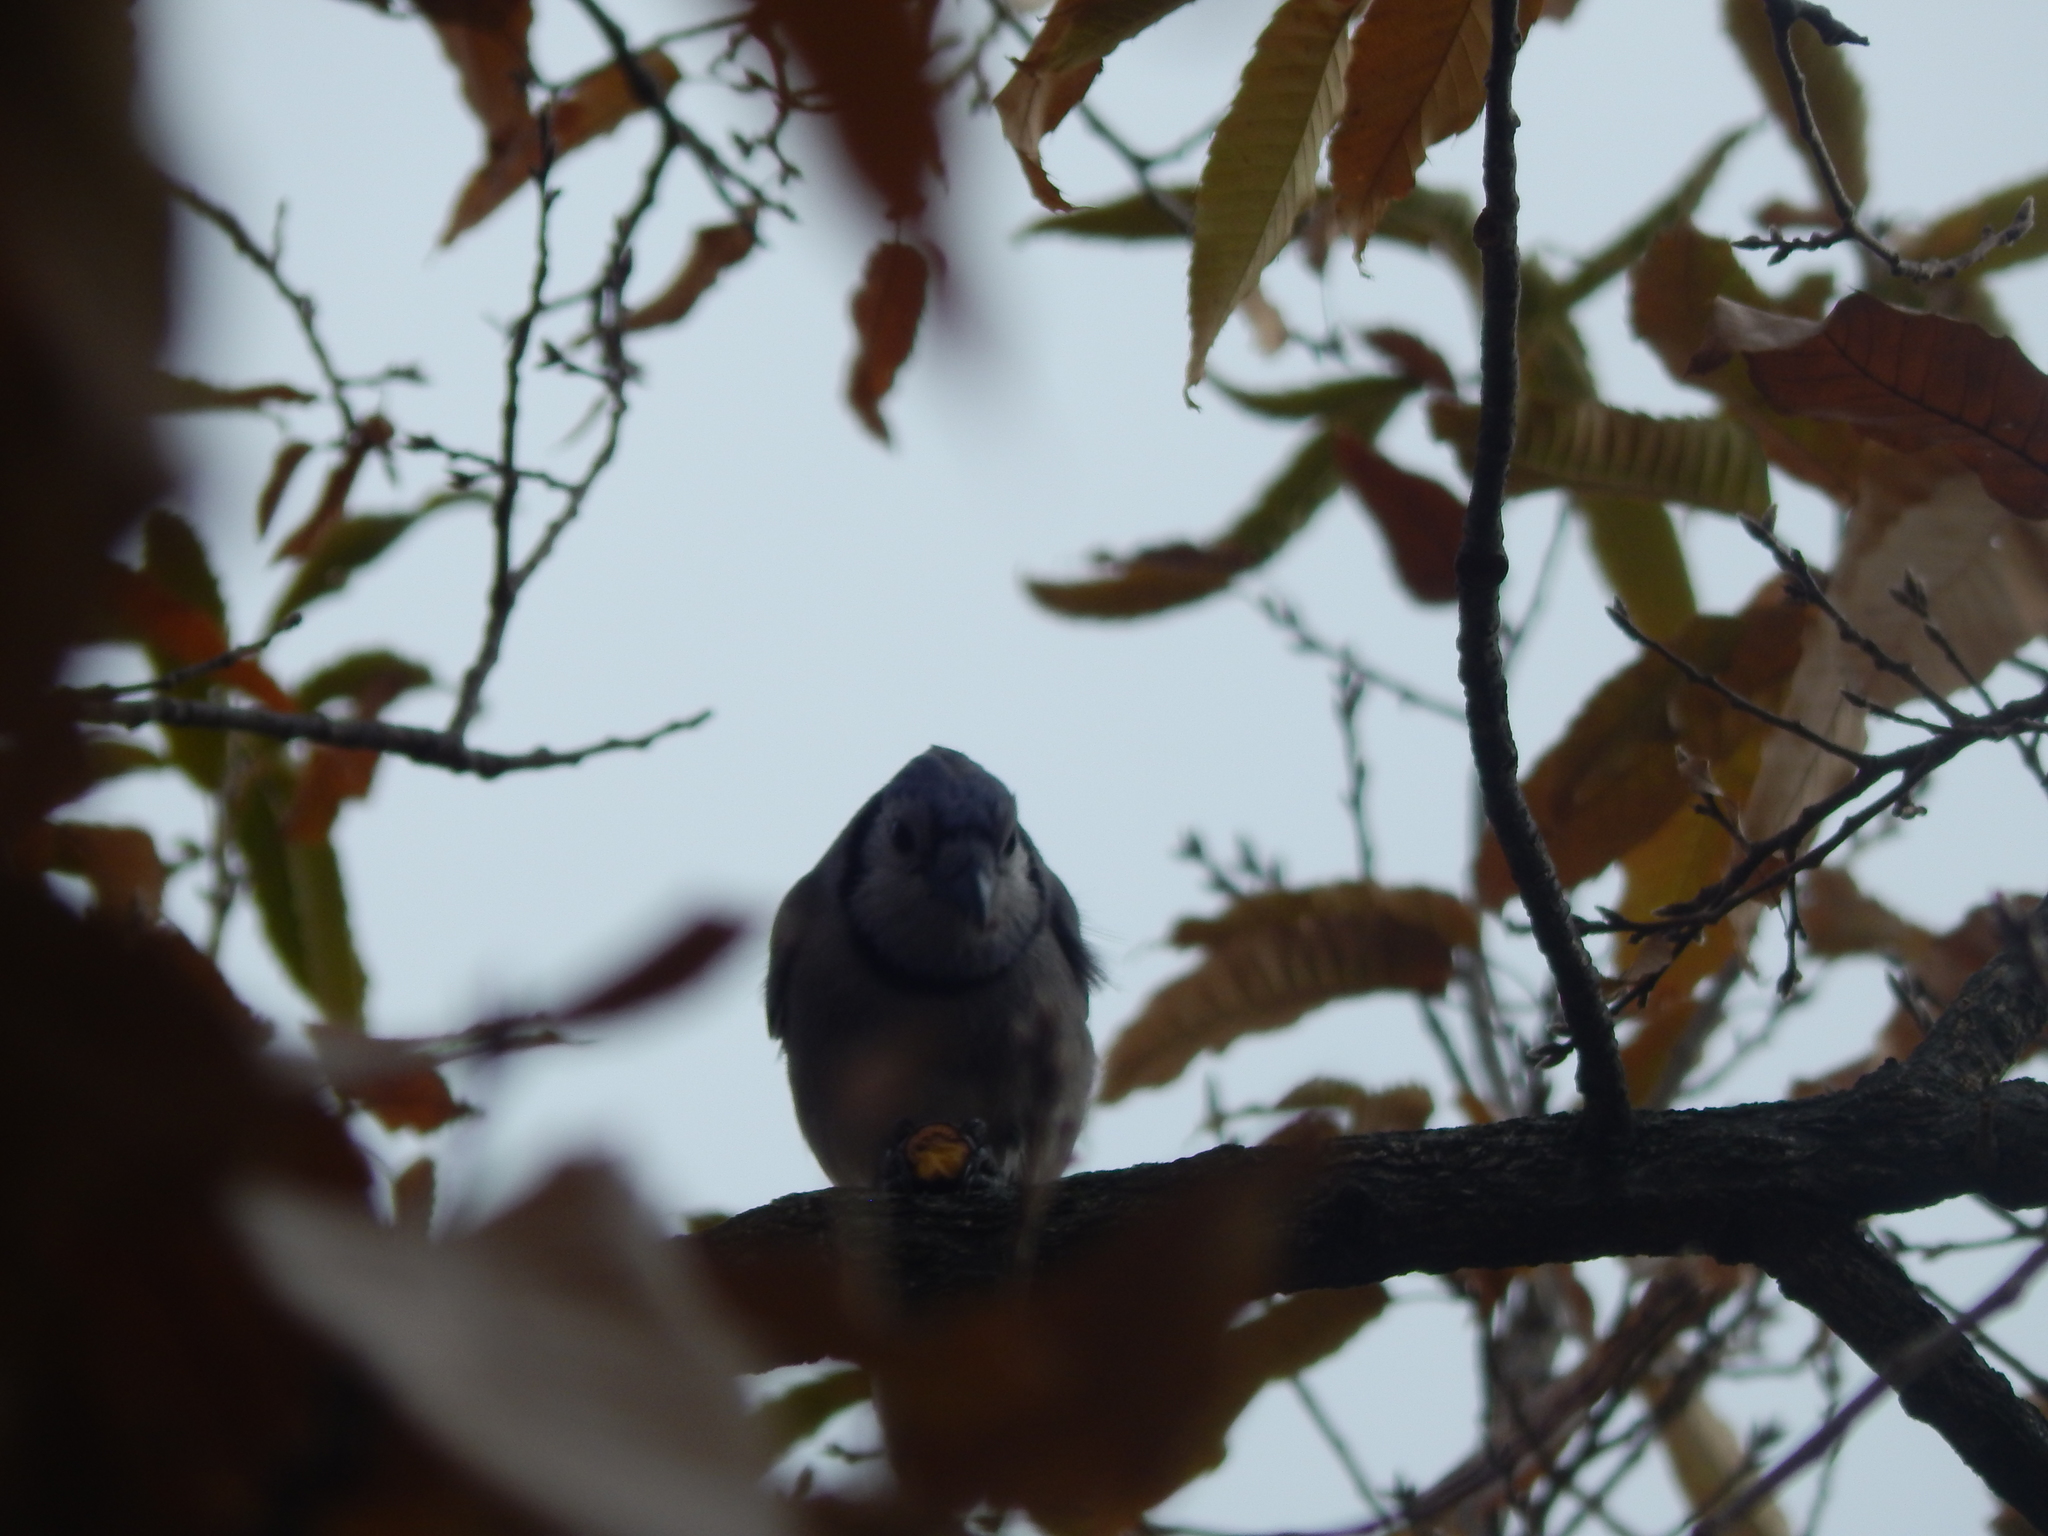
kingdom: Animalia
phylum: Chordata
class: Aves
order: Passeriformes
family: Corvidae
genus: Cyanocitta
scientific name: Cyanocitta cristata
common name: Blue jay
